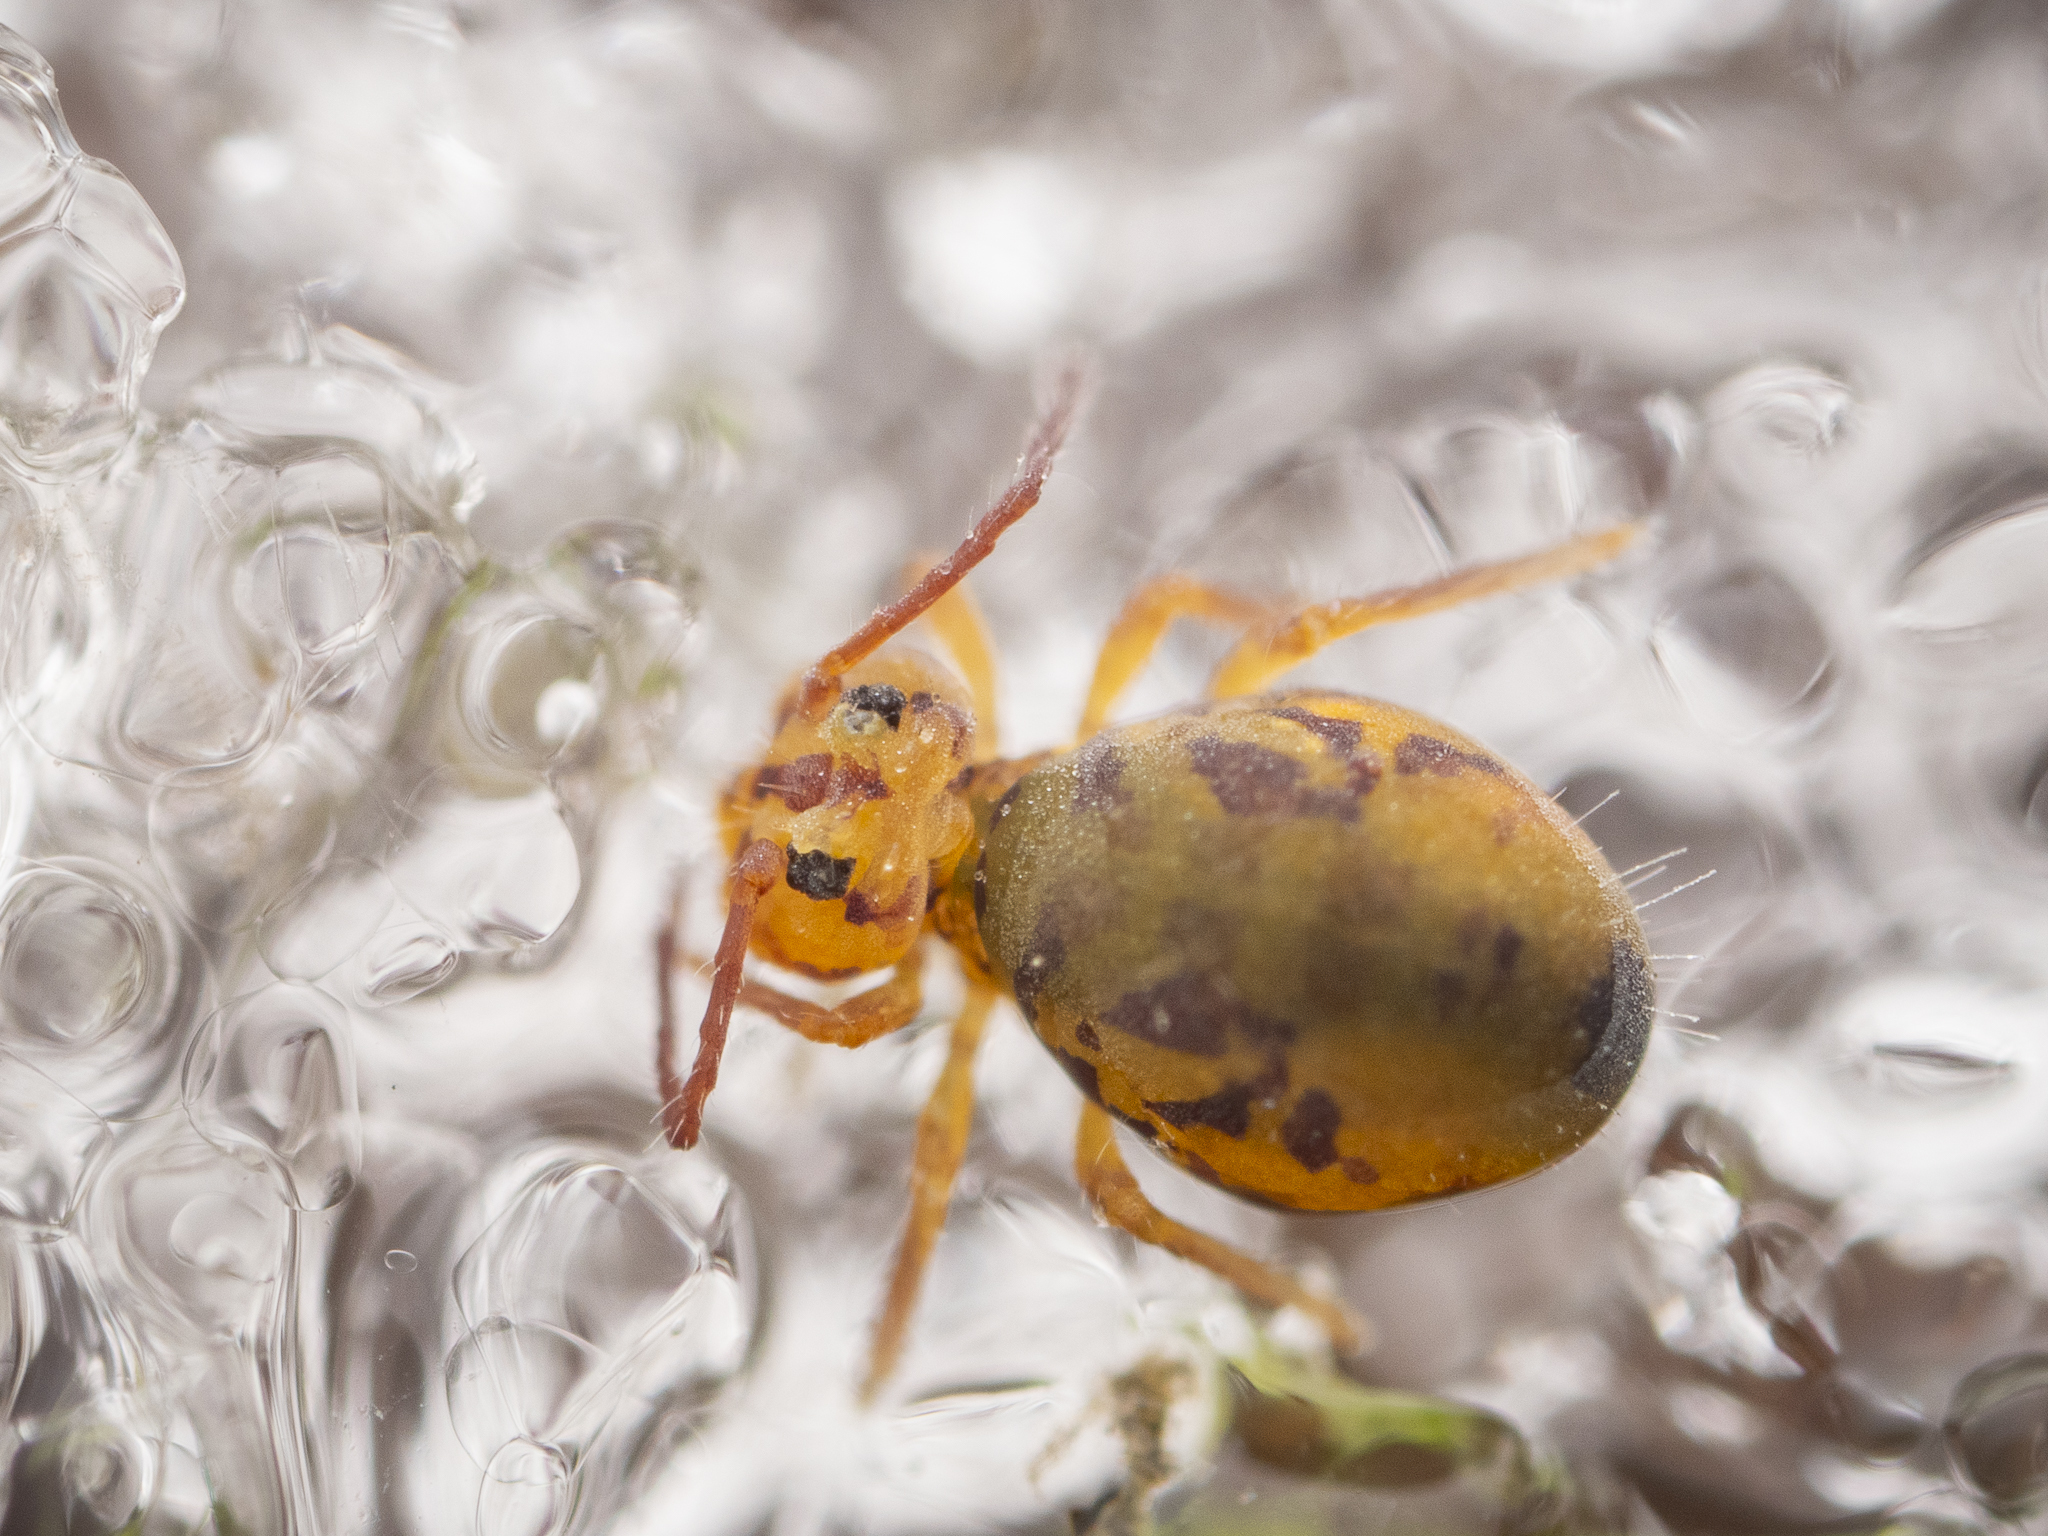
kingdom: Animalia
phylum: Arthropoda
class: Collembola
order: Symphypleona
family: Dicyrtomidae
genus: Dicyrtomina
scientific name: Dicyrtomina ornata
